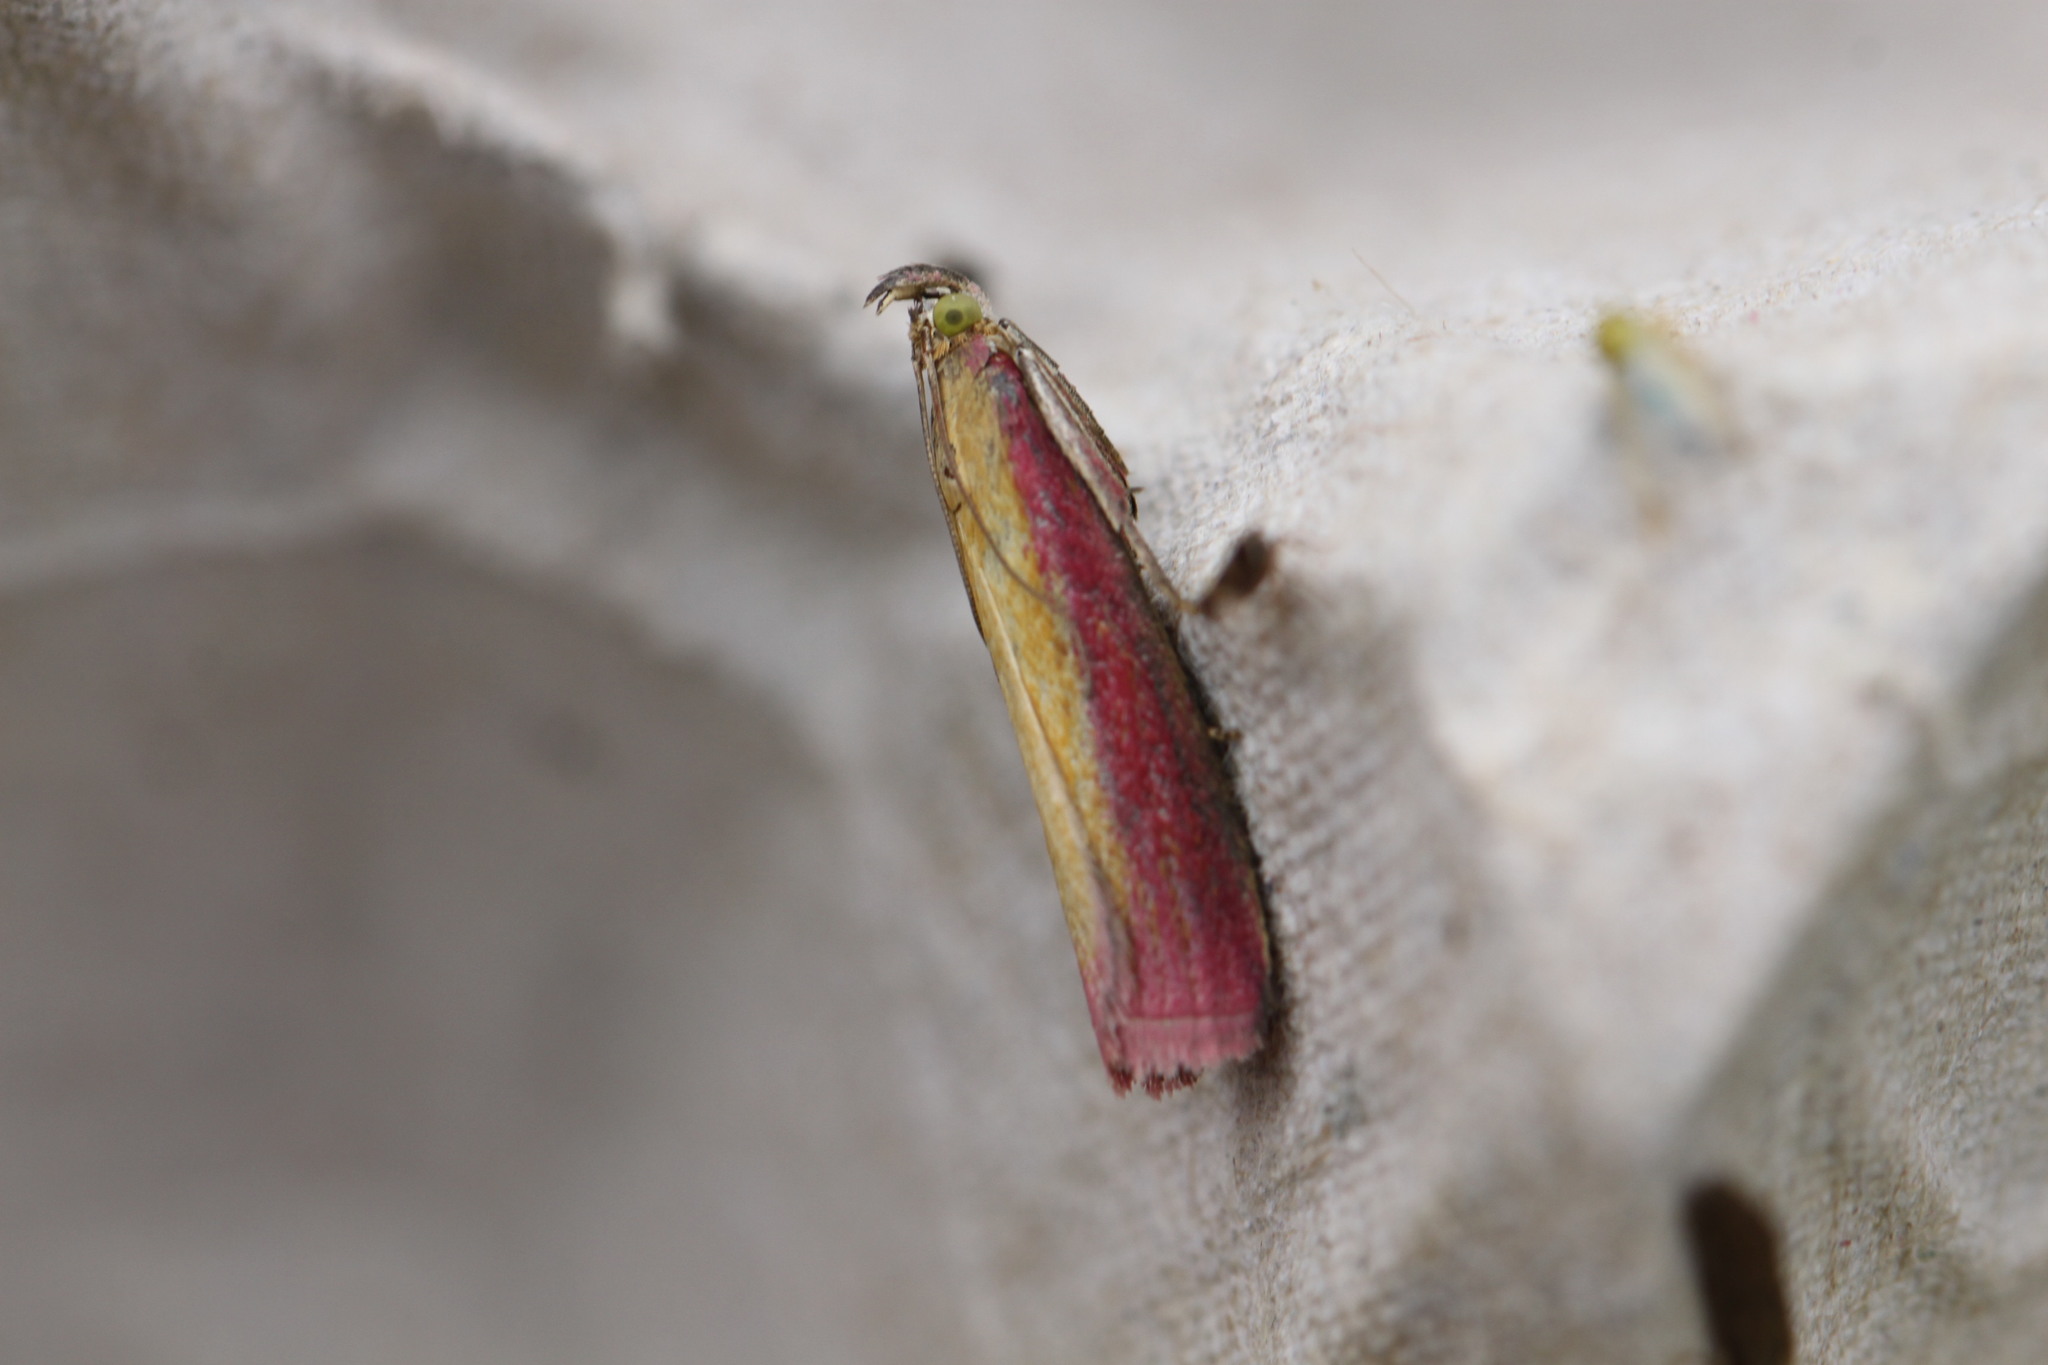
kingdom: Animalia
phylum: Arthropoda
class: Insecta
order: Lepidoptera
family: Pyralidae
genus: Oncocera
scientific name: Oncocera semirubella
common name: Rosy-striped knot-horn
